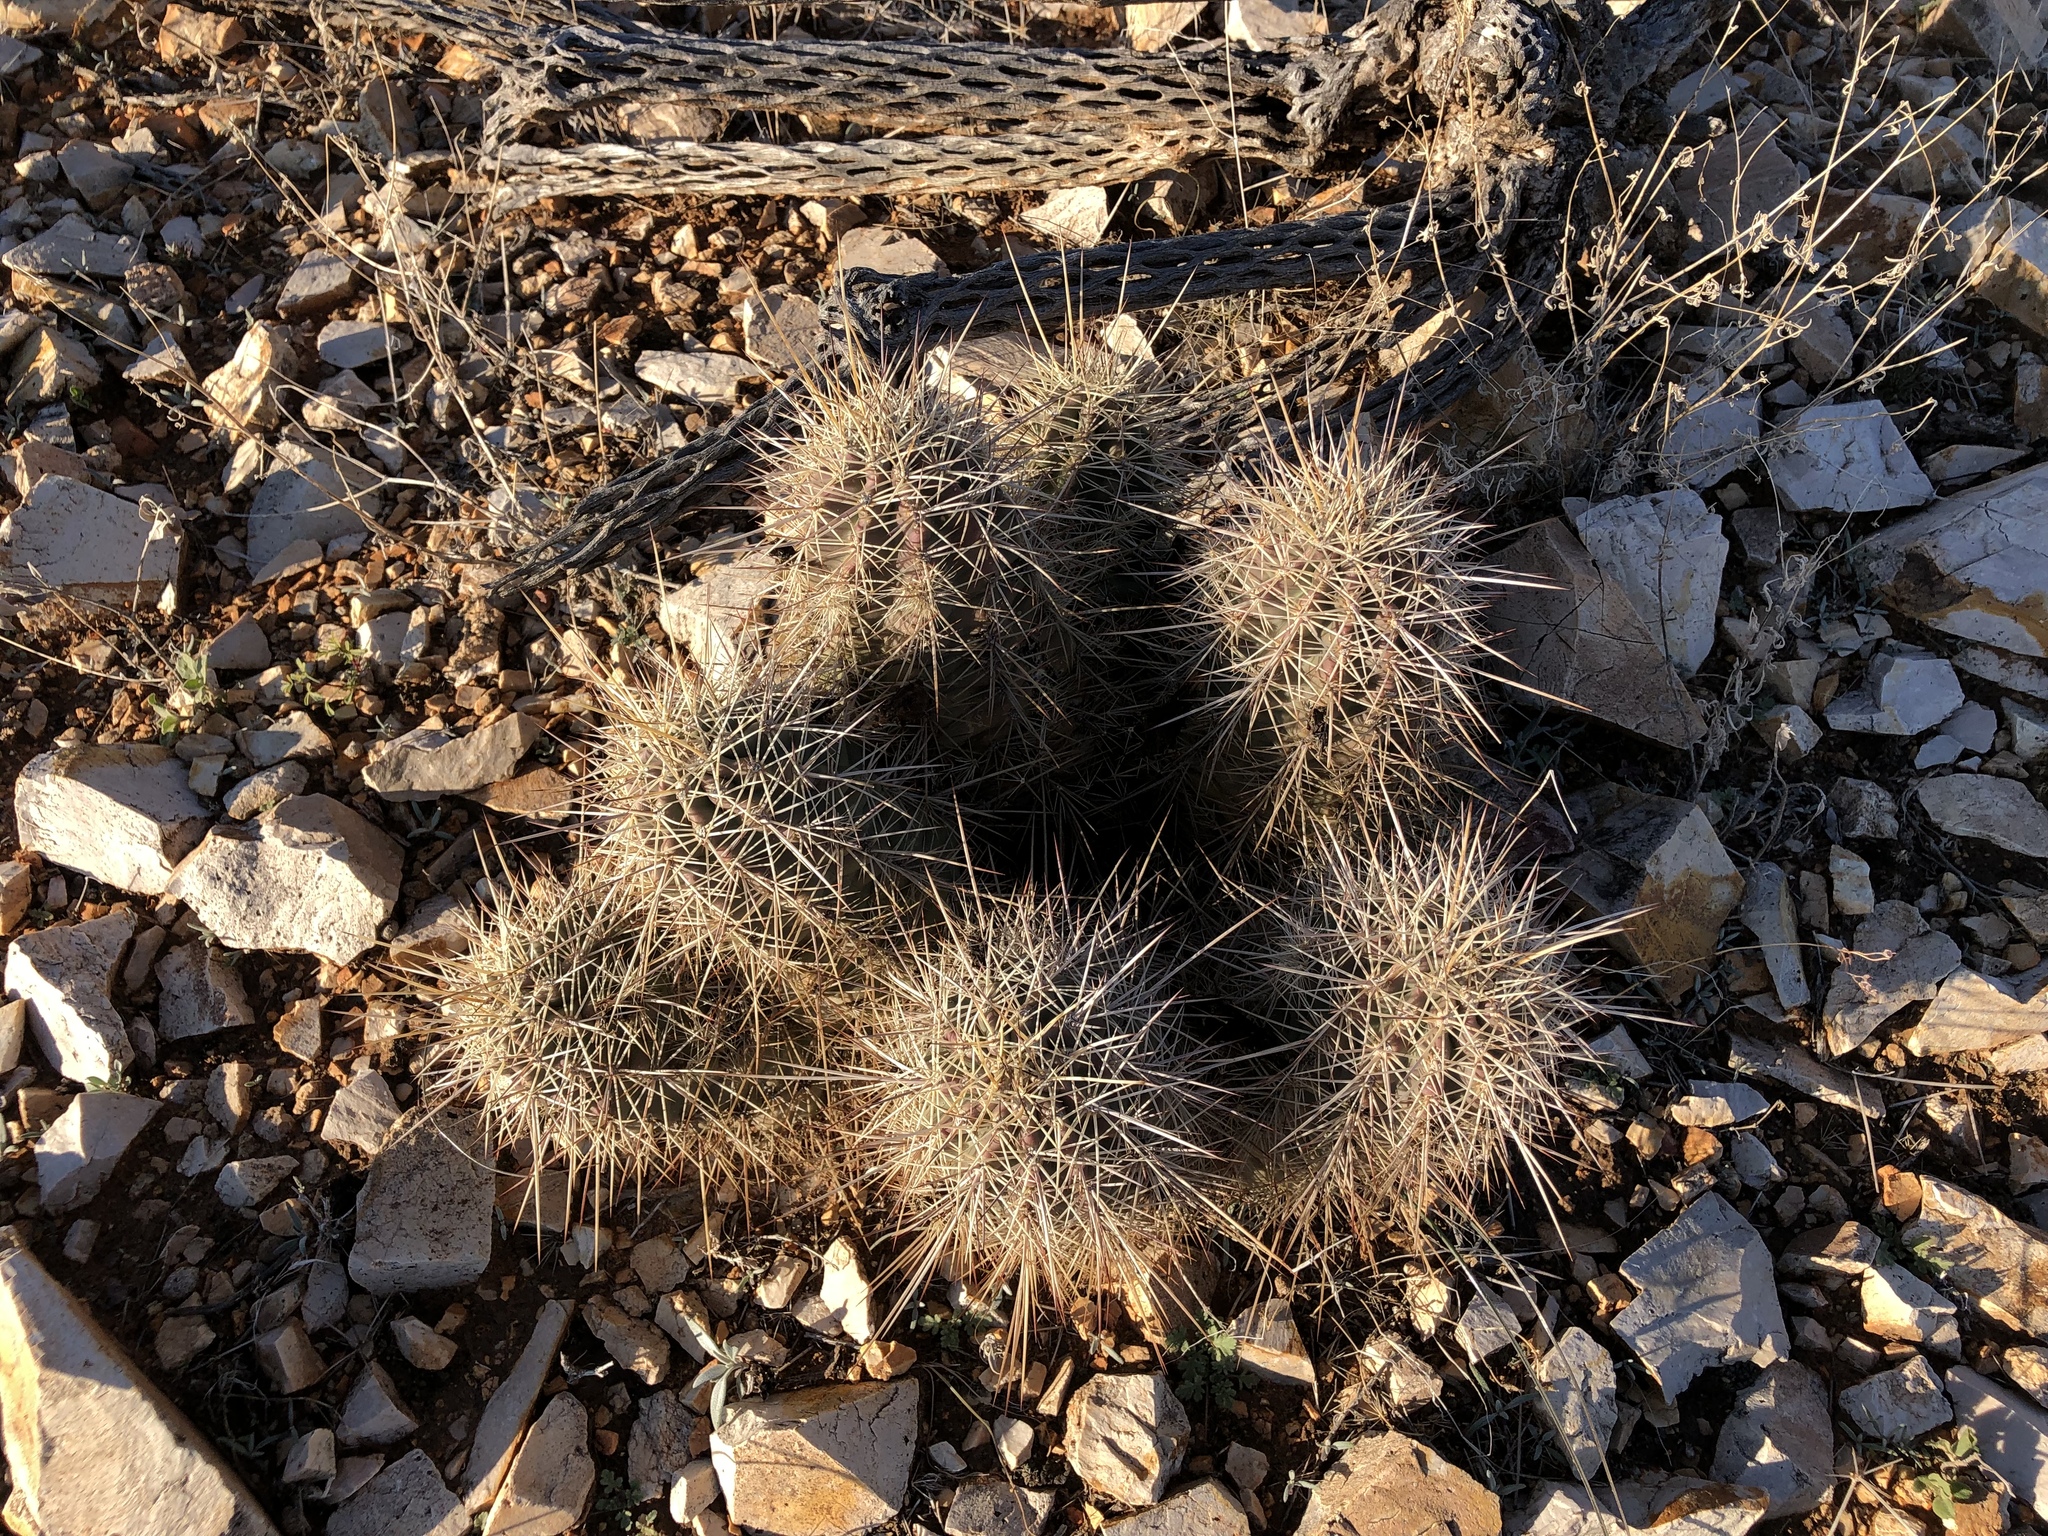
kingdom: Plantae
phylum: Tracheophyta
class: Magnoliopsida
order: Caryophyllales
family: Cactaceae
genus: Echinocereus
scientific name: Echinocereus coccineus
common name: Scarlet hedgehog cactus
